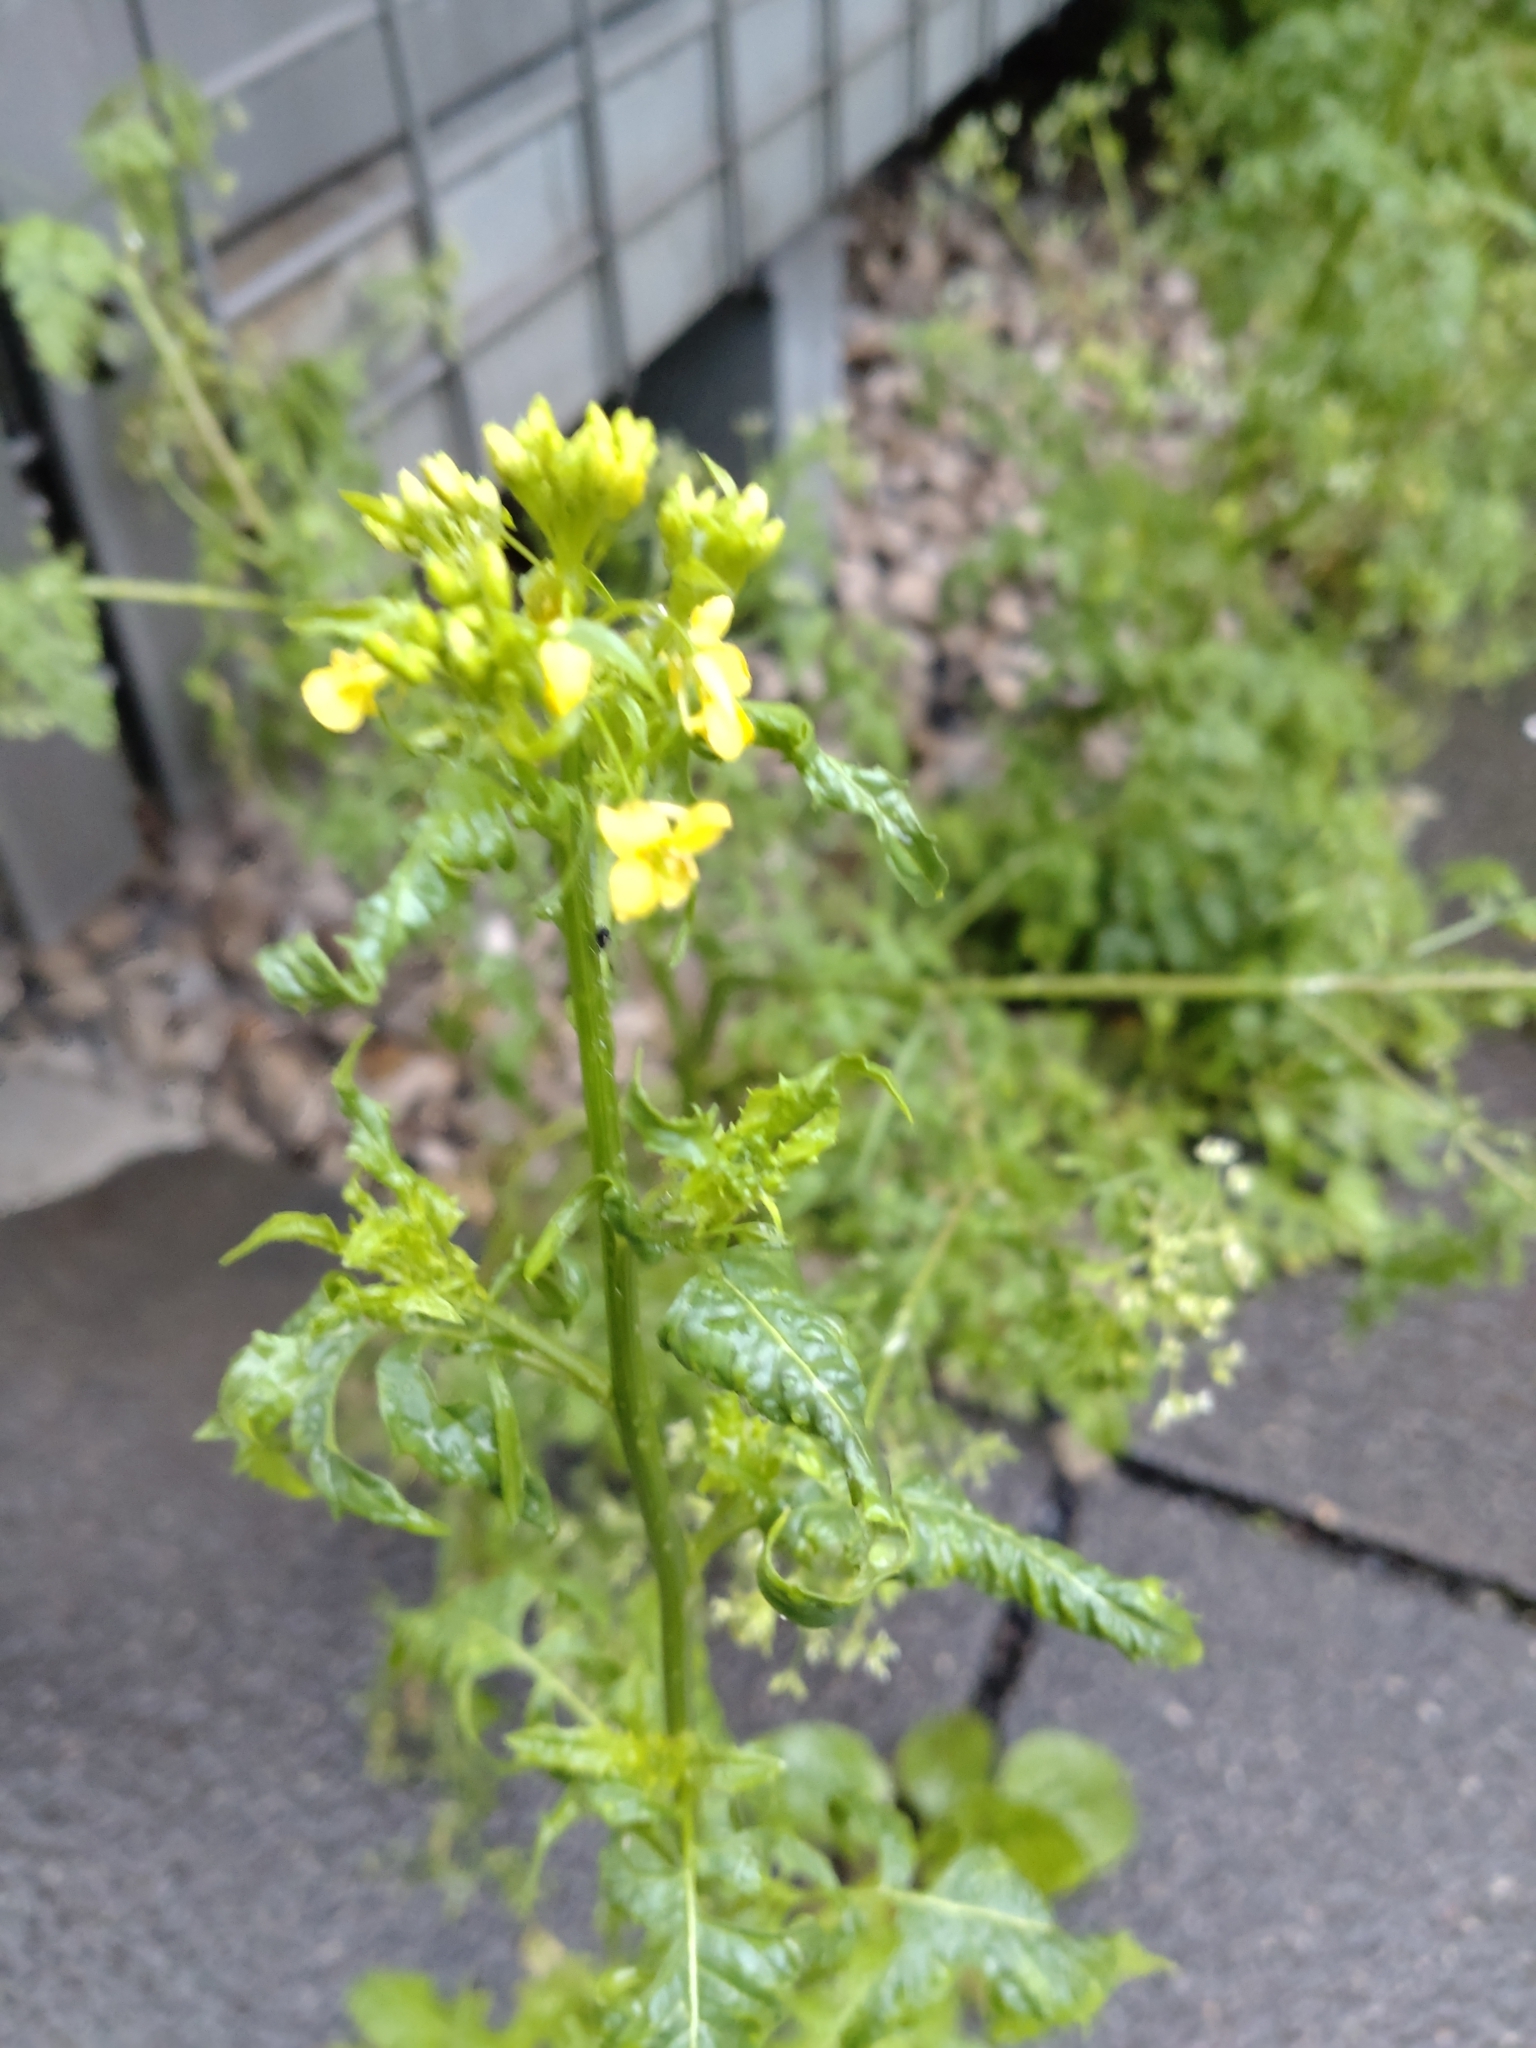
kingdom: Plantae
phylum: Tracheophyta
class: Magnoliopsida
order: Brassicales
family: Brassicaceae
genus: Sisymbrium
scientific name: Sisymbrium loeselii
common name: False london-rocket
